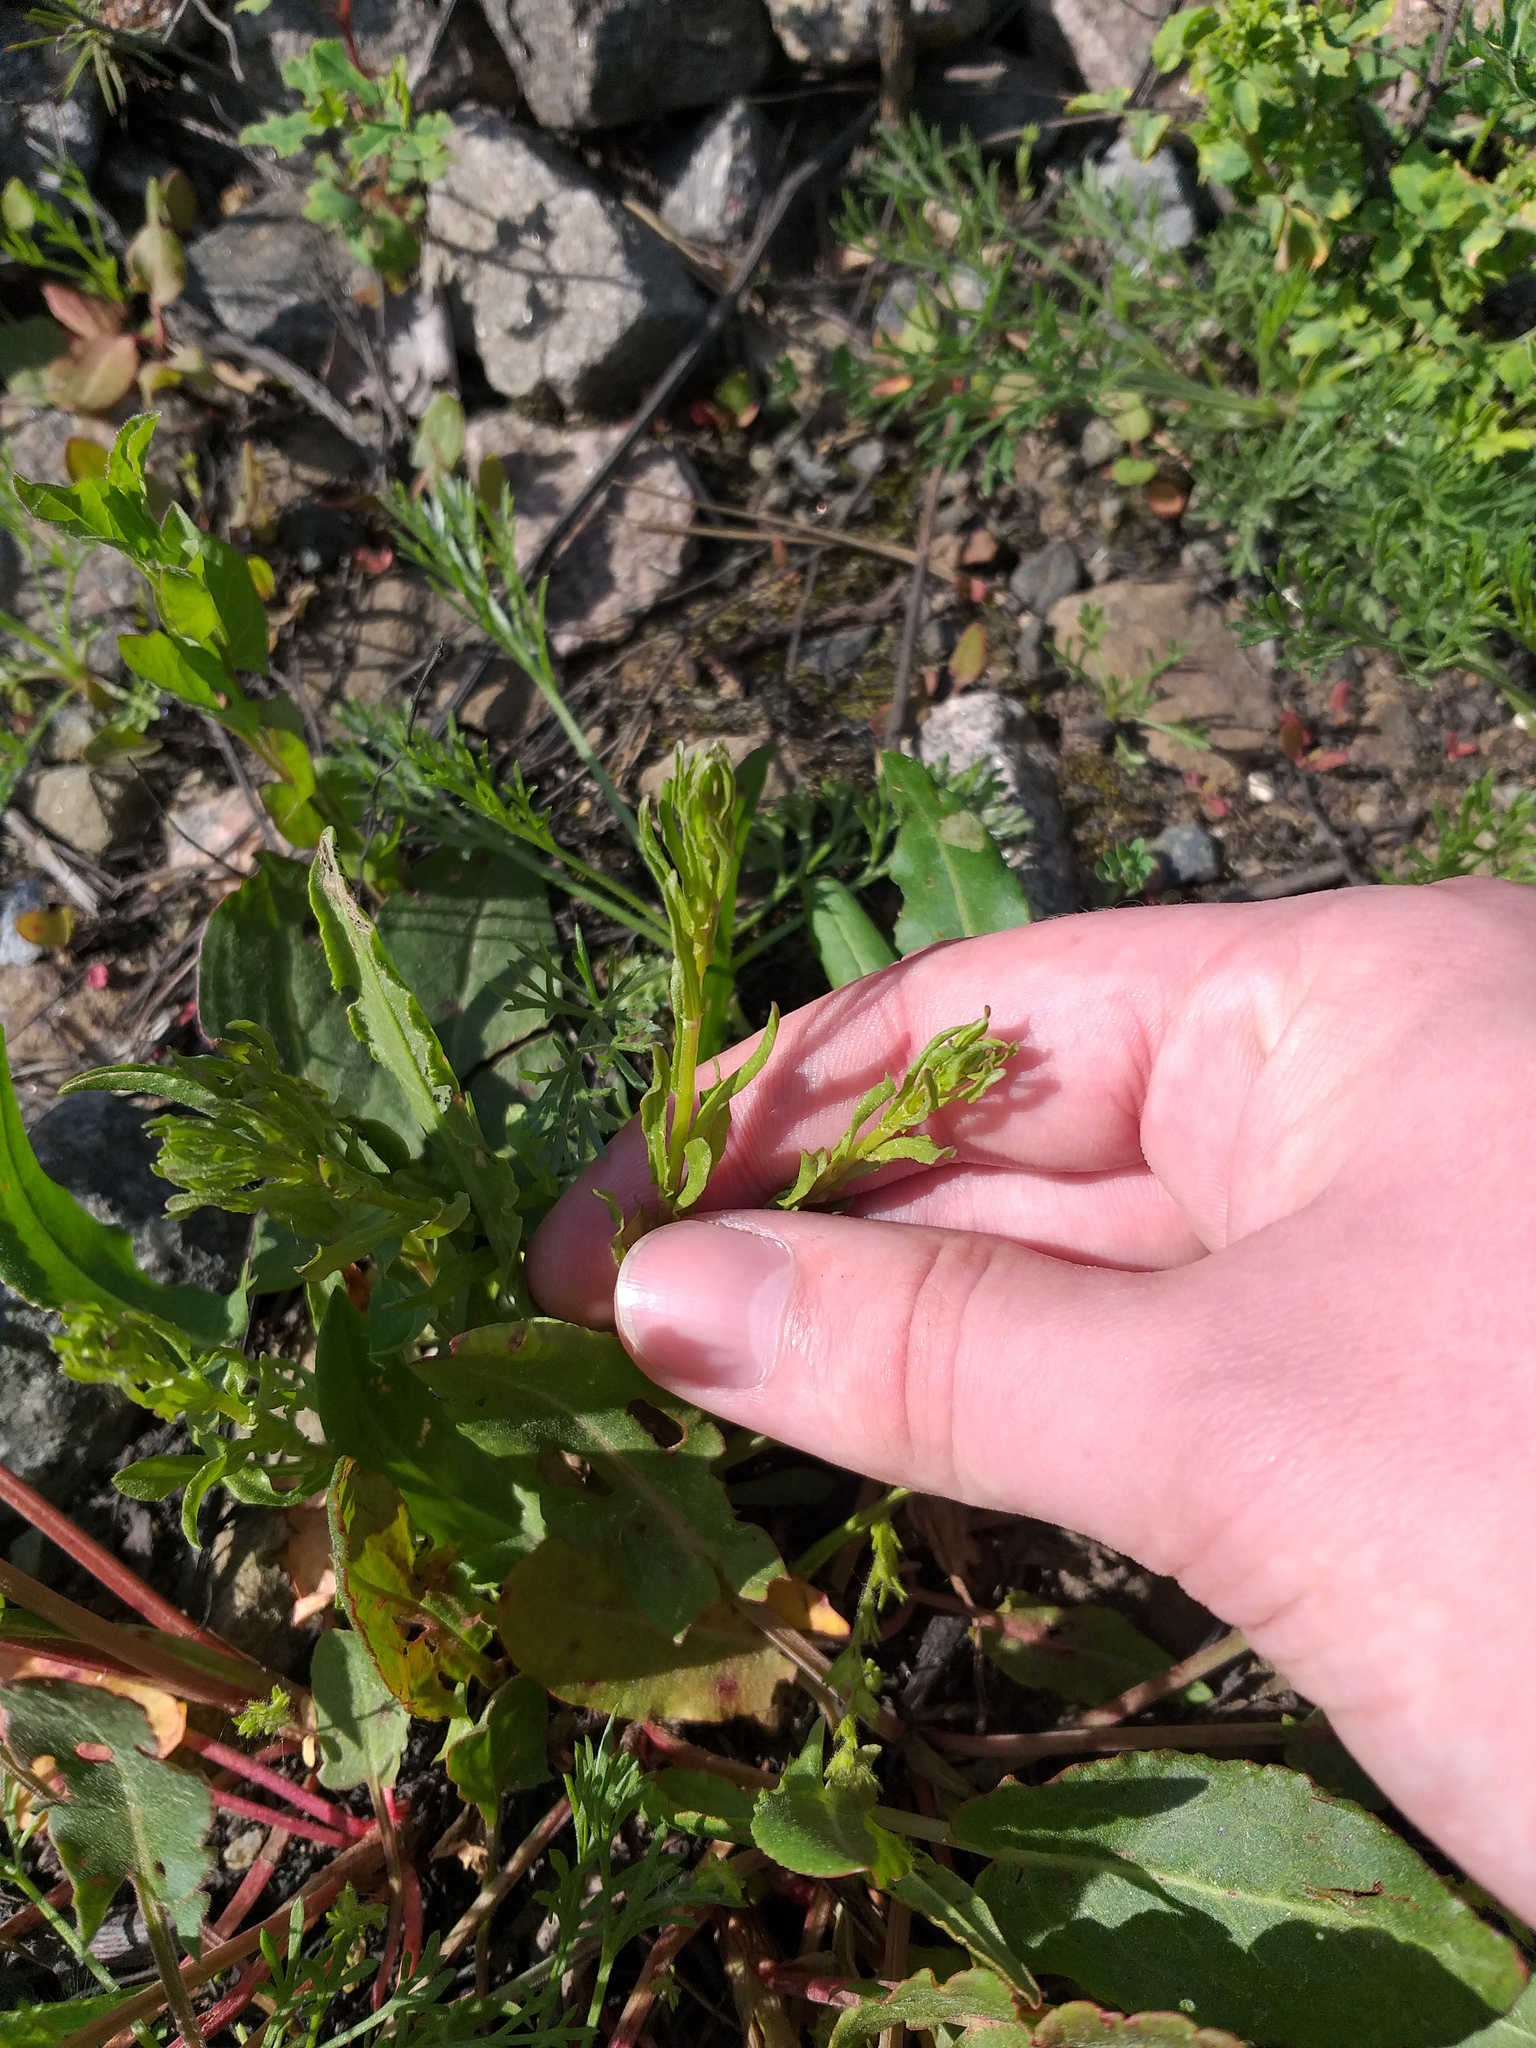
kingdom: Plantae
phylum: Tracheophyta
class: Magnoliopsida
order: Asterales
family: Campanulaceae
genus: Jasione
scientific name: Jasione montana
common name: Sheep's-bit
